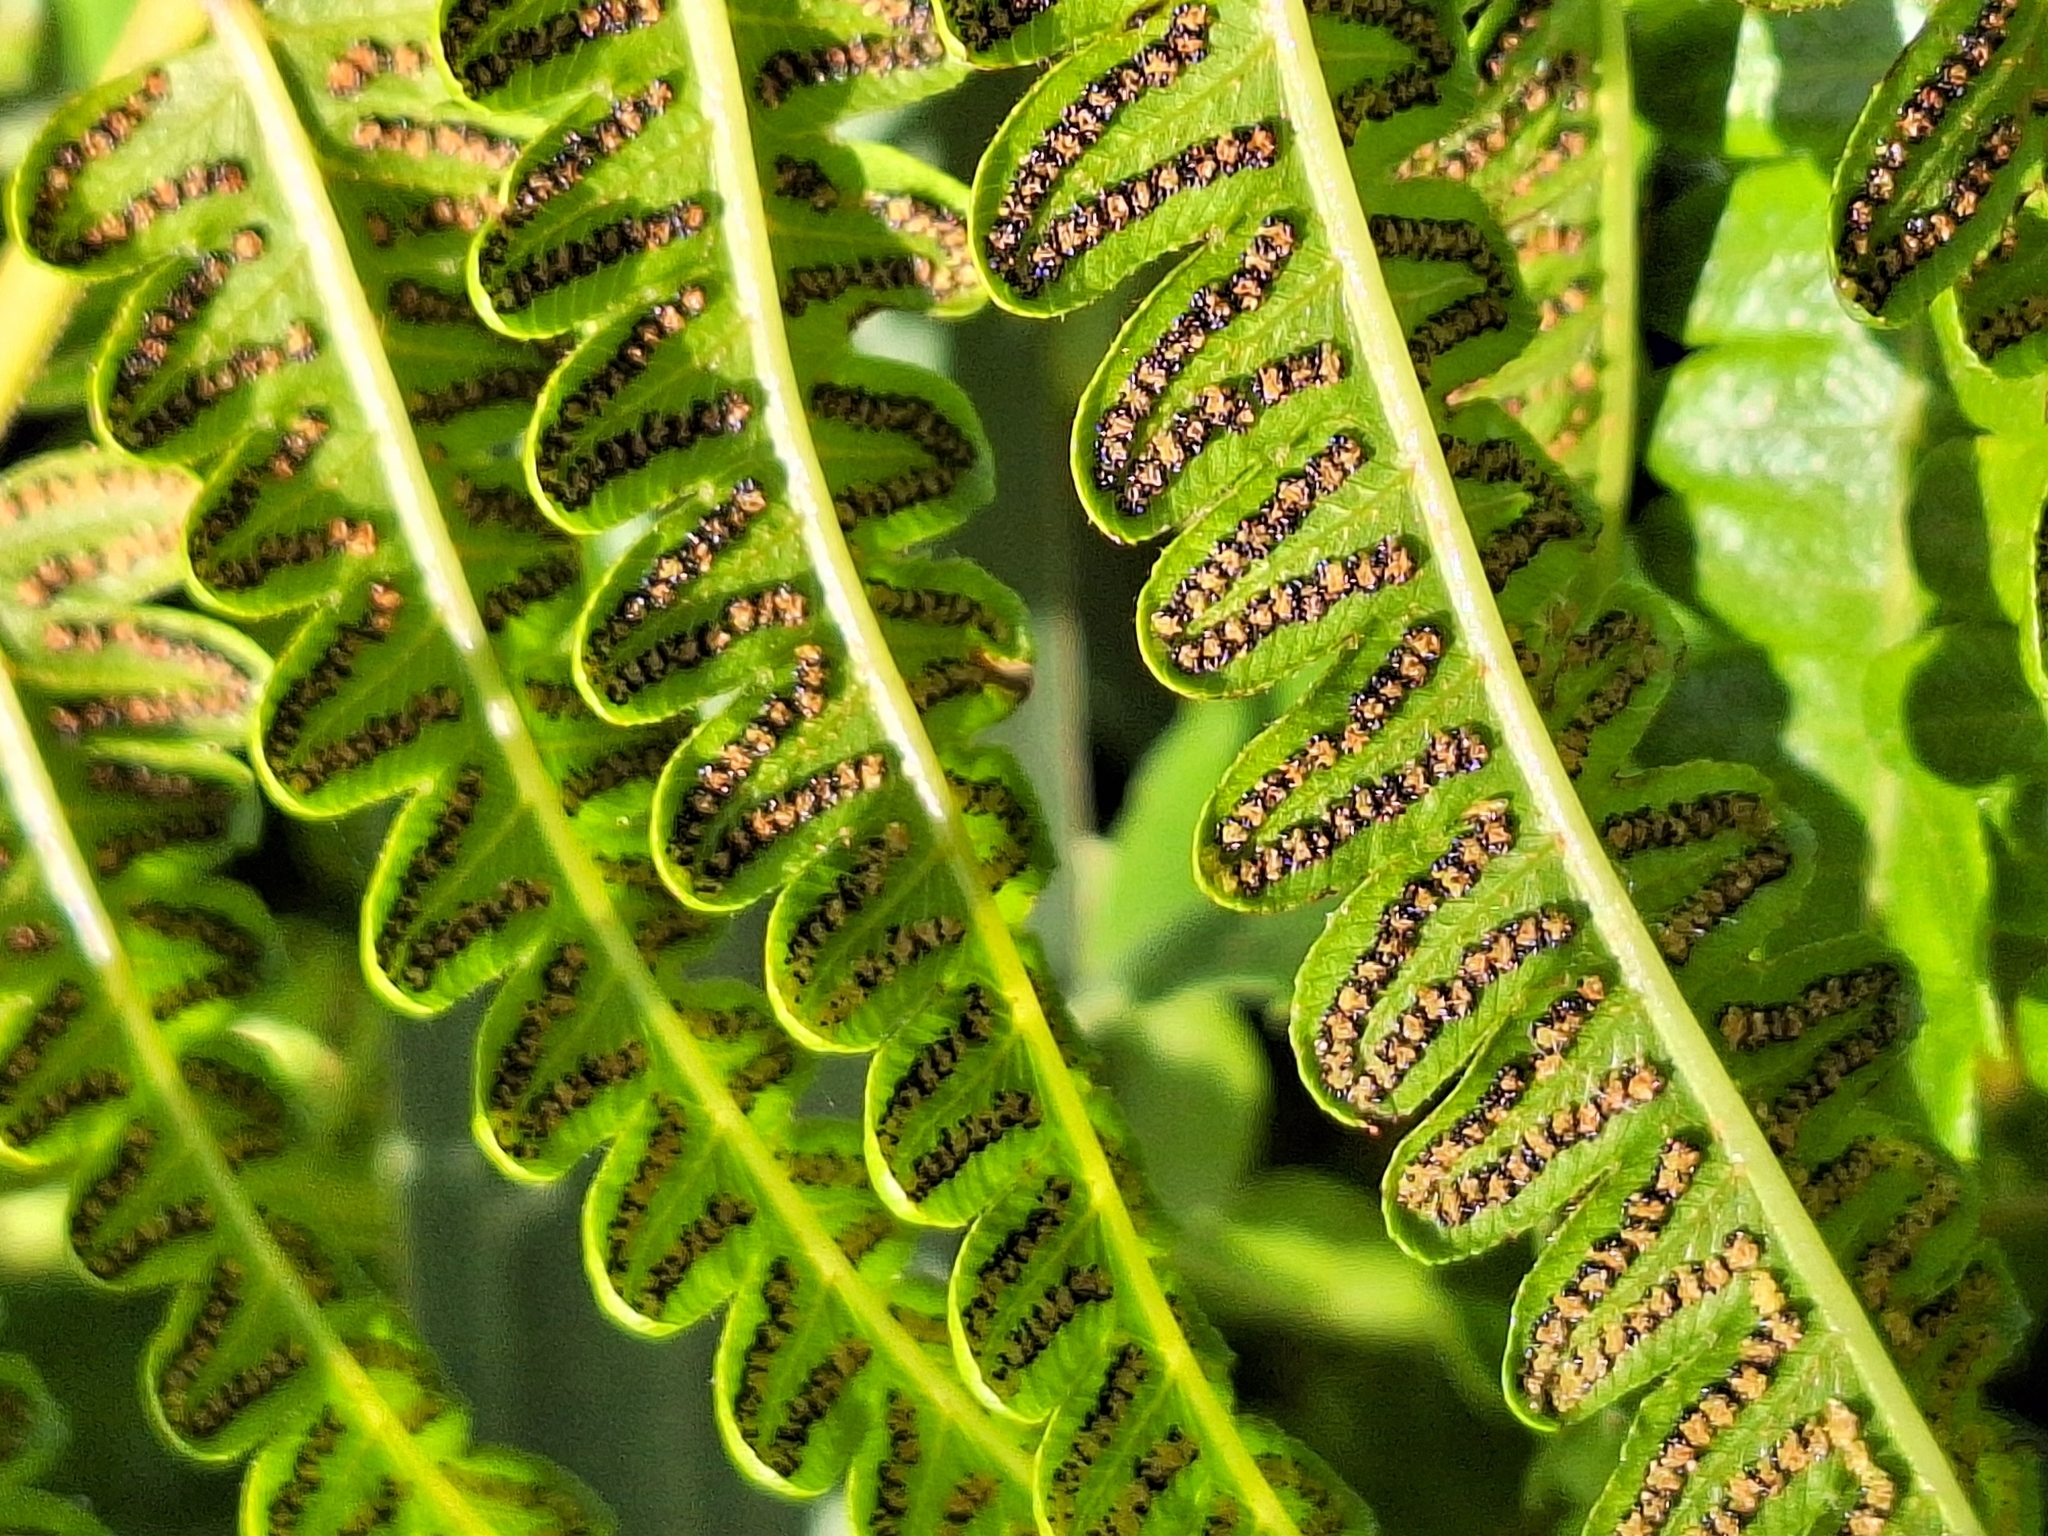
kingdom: Plantae
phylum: Tracheophyta
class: Polypodiopsida
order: Polypodiales
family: Thelypteridaceae
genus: Cyclosorus
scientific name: Cyclosorus interruptus
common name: Neke fern
